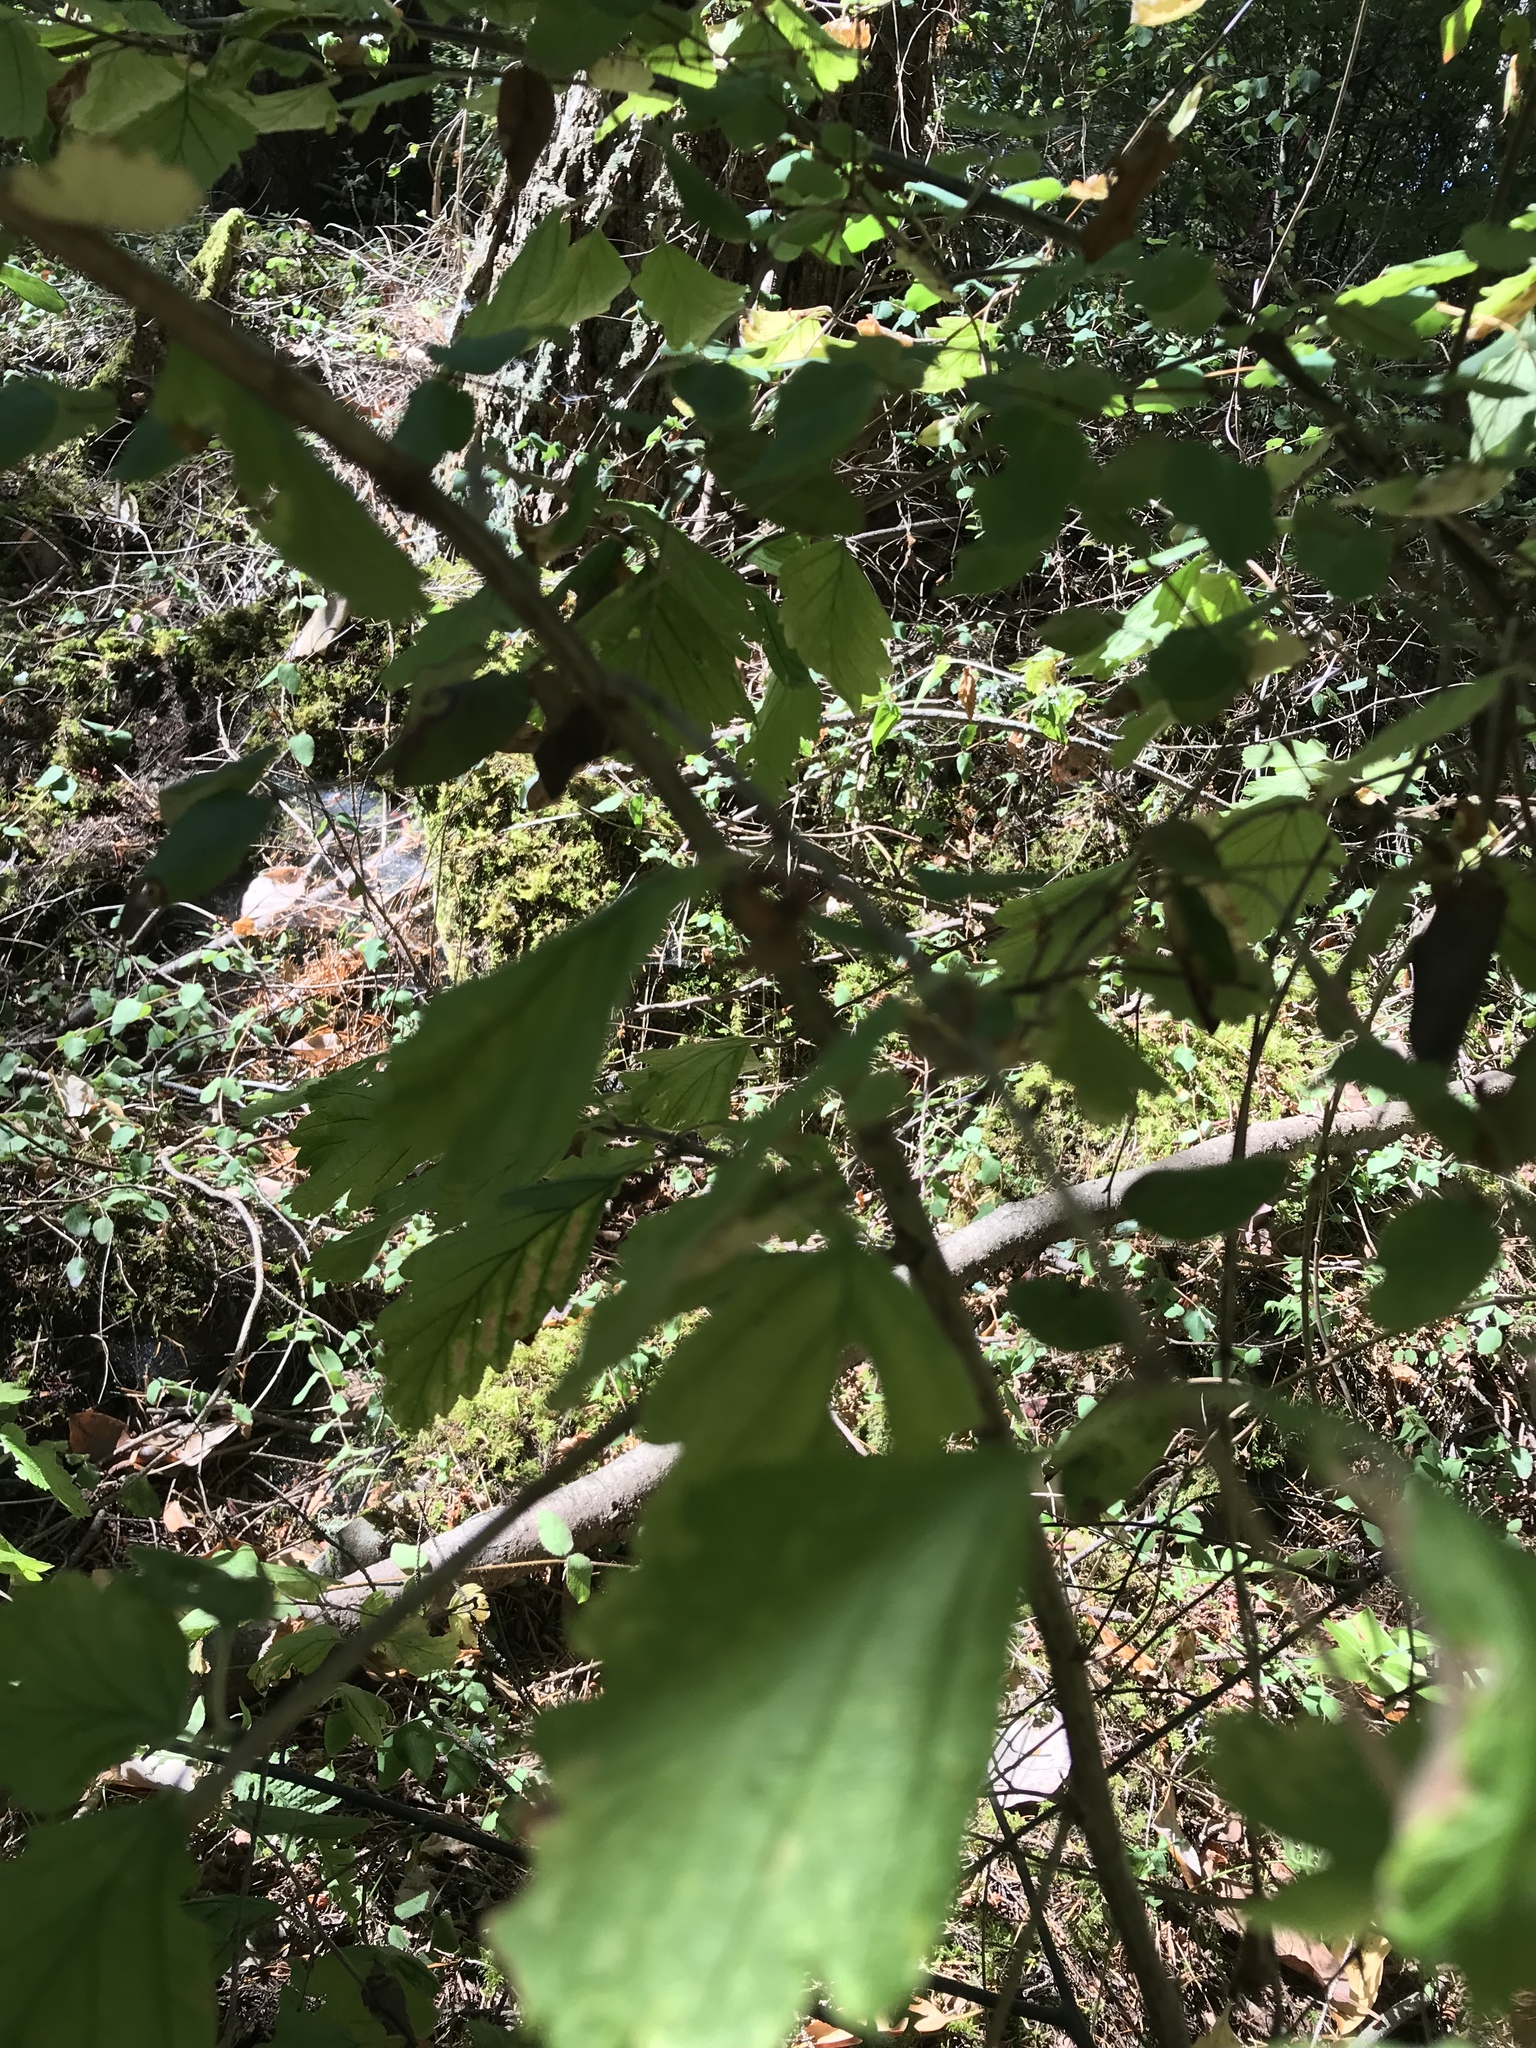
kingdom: Plantae
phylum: Tracheophyta
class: Magnoliopsida
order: Rosales
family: Rosaceae
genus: Holodiscus
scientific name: Holodiscus discolor
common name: Oceanspray
